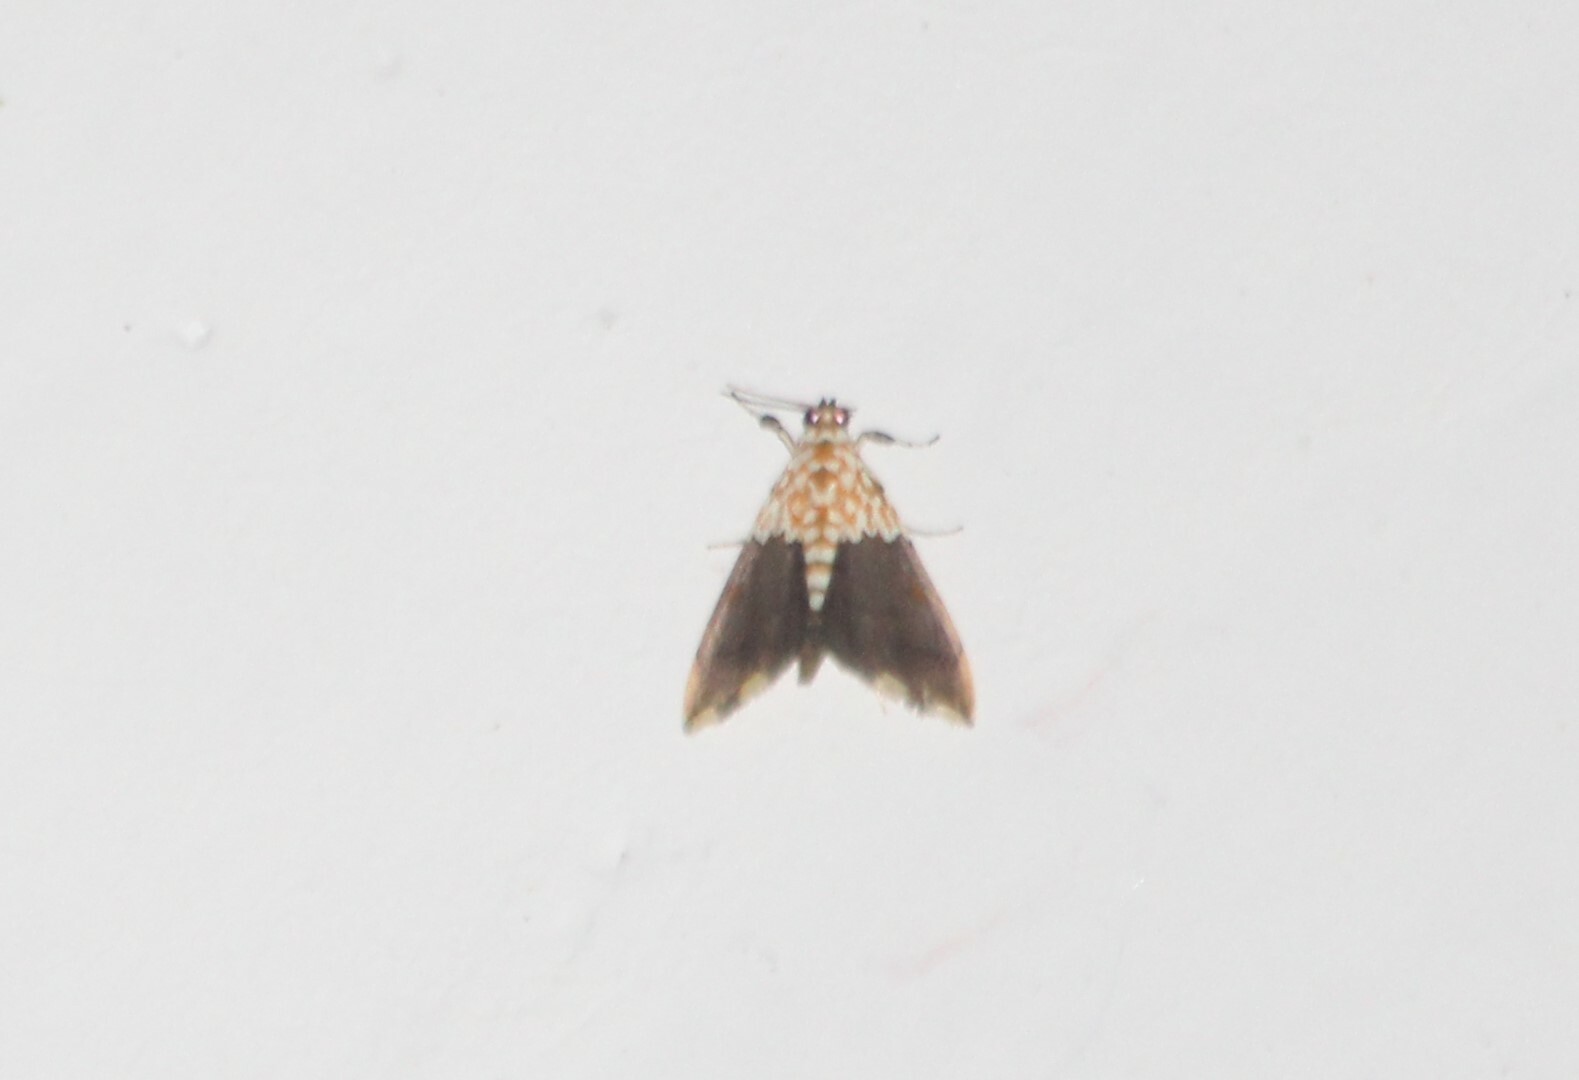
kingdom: Animalia
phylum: Arthropoda
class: Insecta
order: Lepidoptera
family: Crambidae
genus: Agrotera
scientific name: Agrotera basinotata
